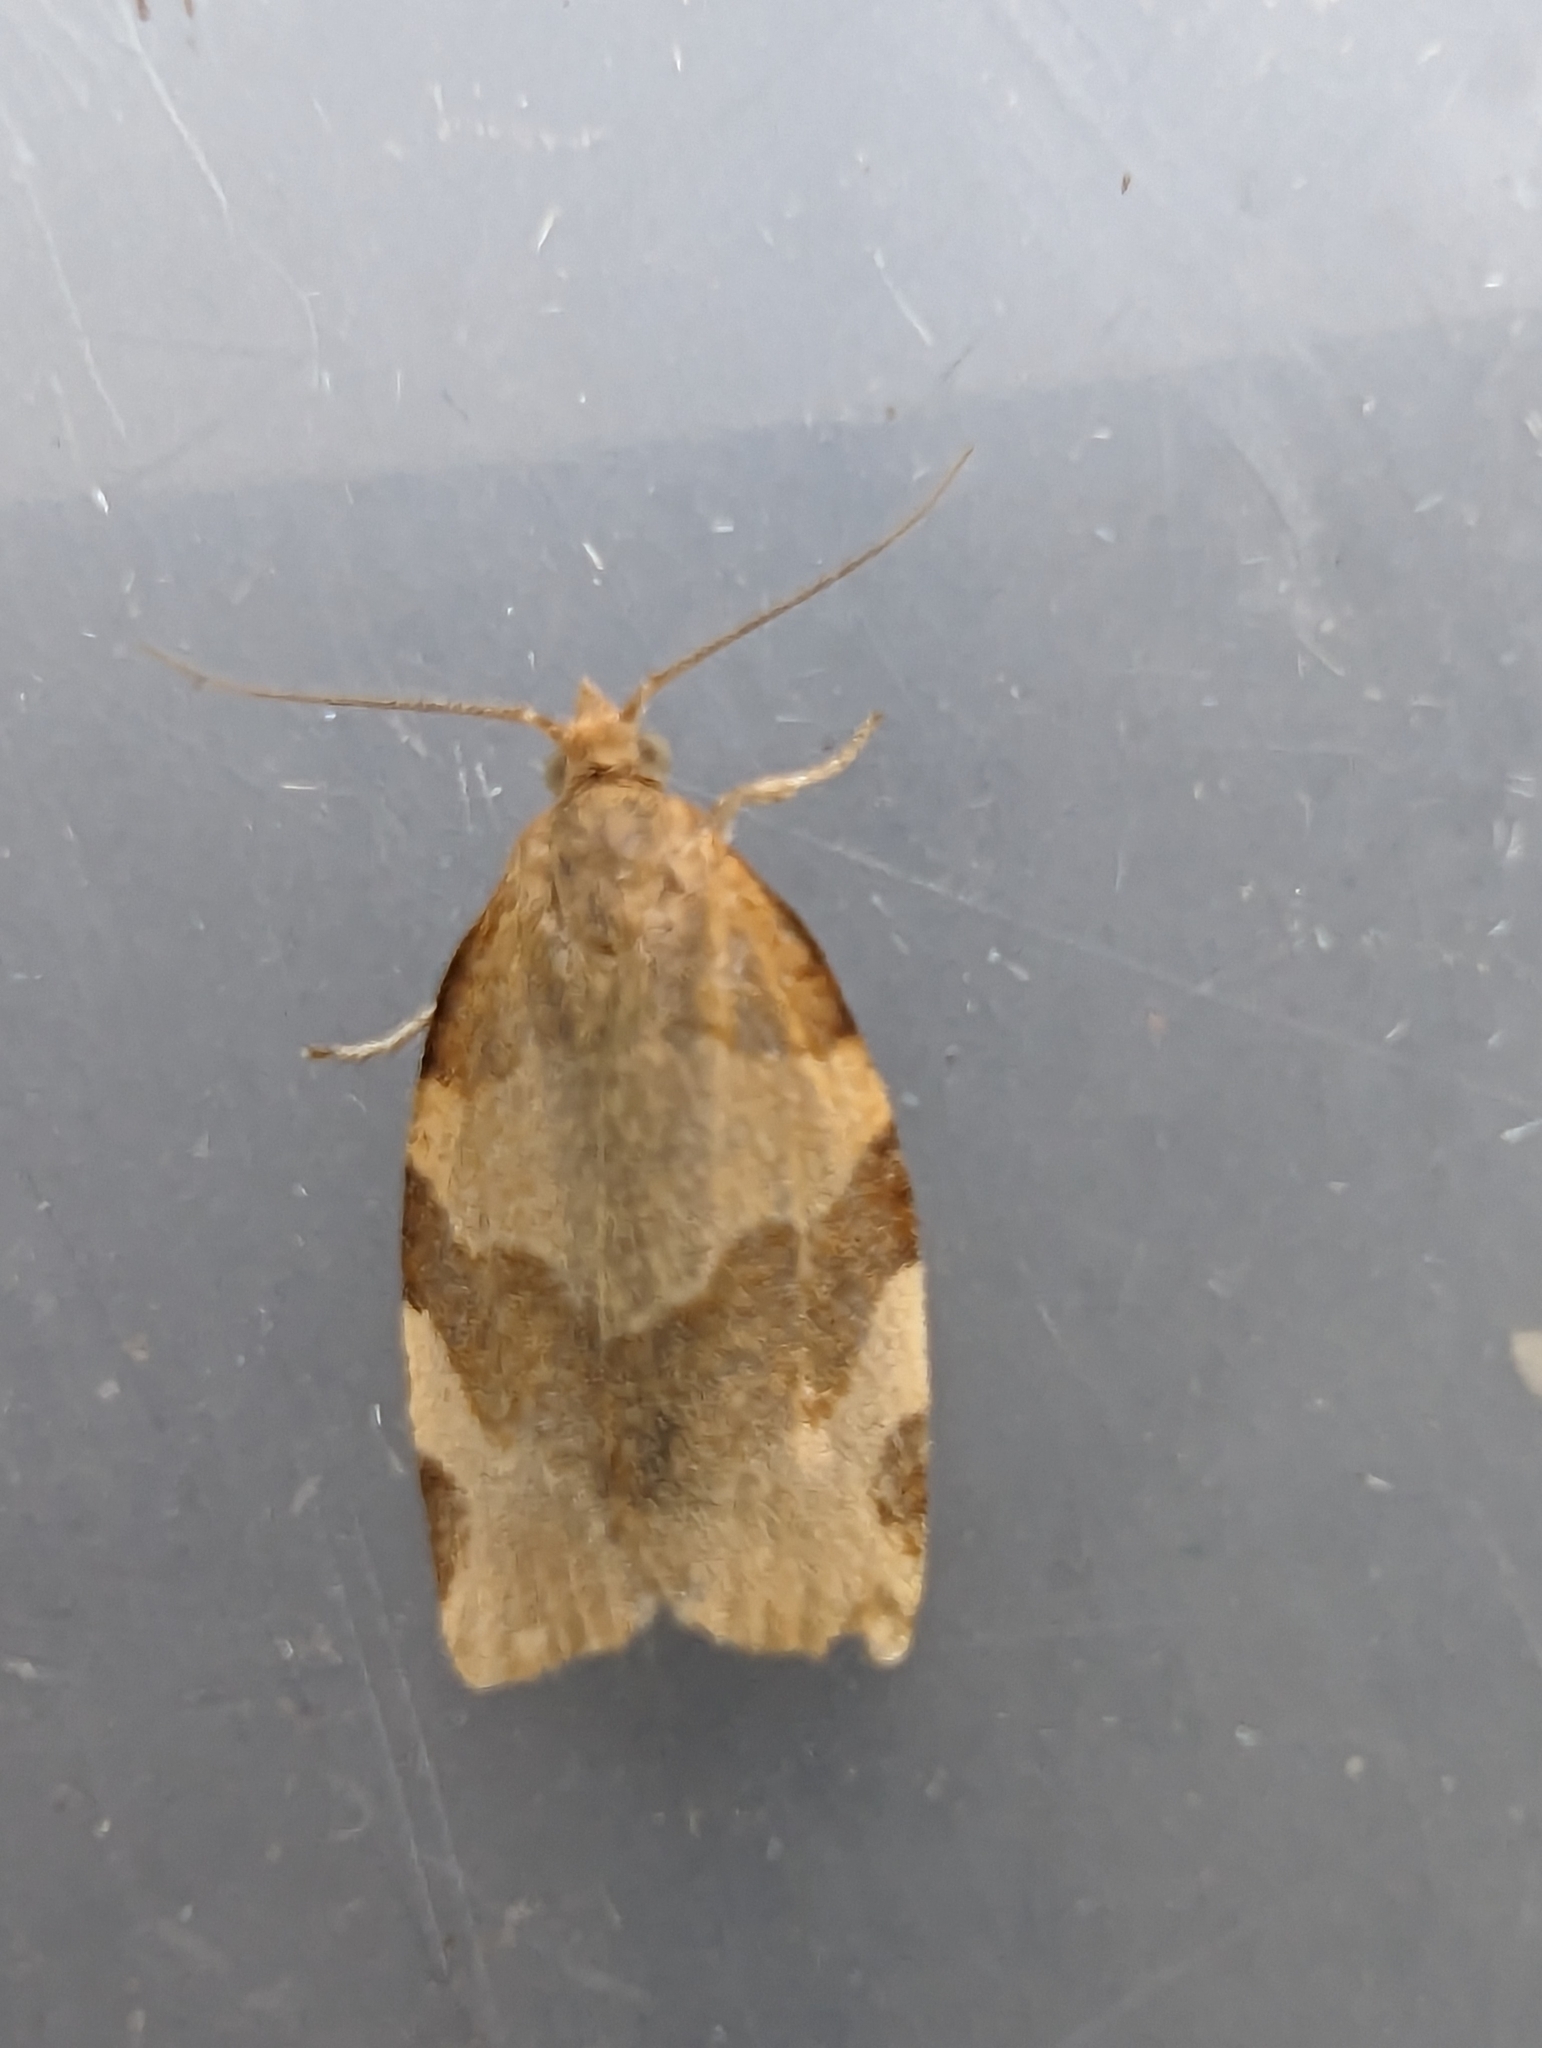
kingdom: Animalia
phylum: Arthropoda
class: Insecta
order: Lepidoptera
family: Tortricidae
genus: Pandemis
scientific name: Pandemis cerasana
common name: Barred fruit-tree tortrix
